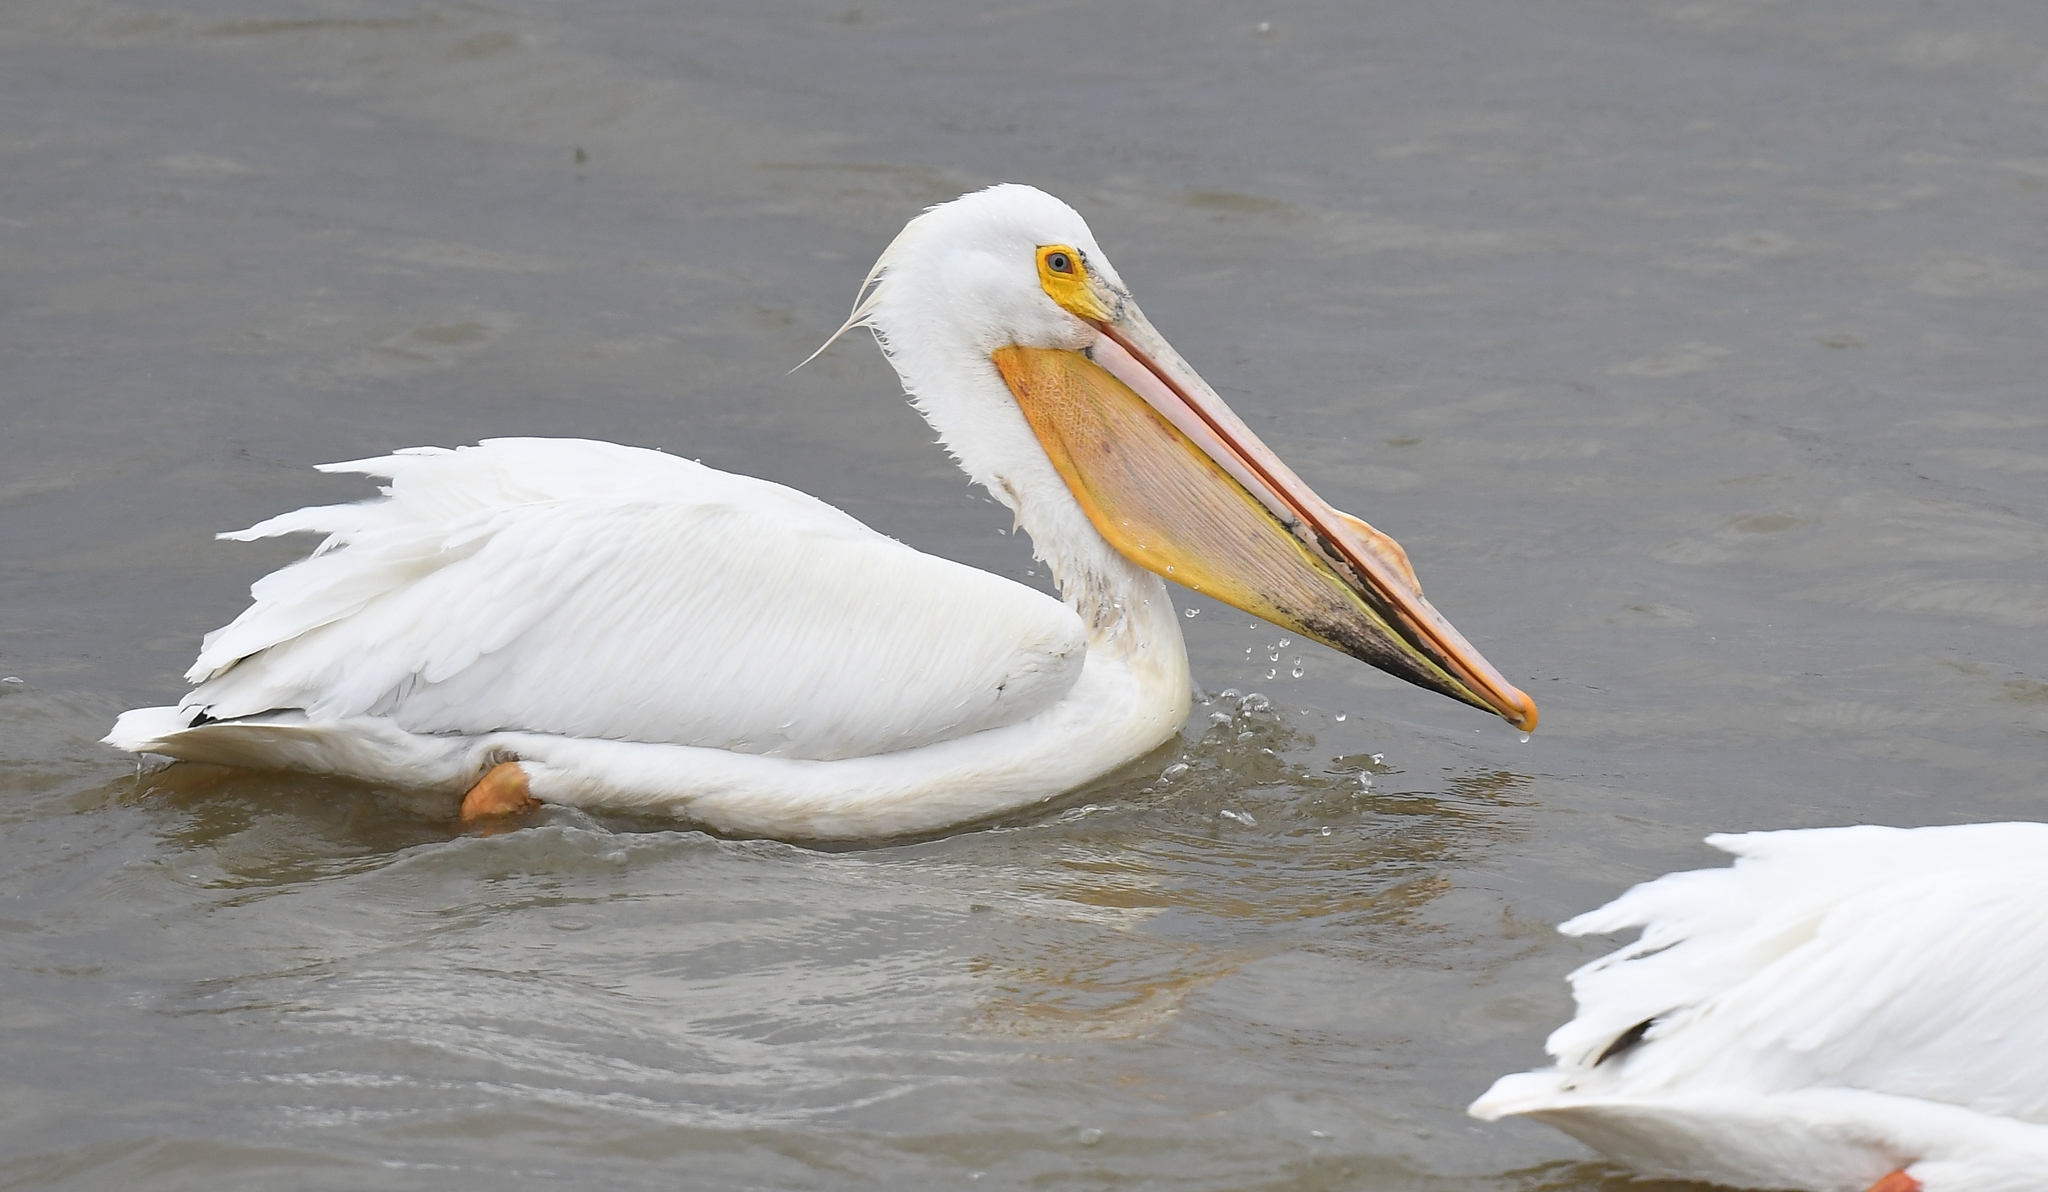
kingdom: Animalia
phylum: Chordata
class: Aves
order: Pelecaniformes
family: Pelecanidae
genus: Pelecanus
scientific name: Pelecanus erythrorhynchos
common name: American white pelican
